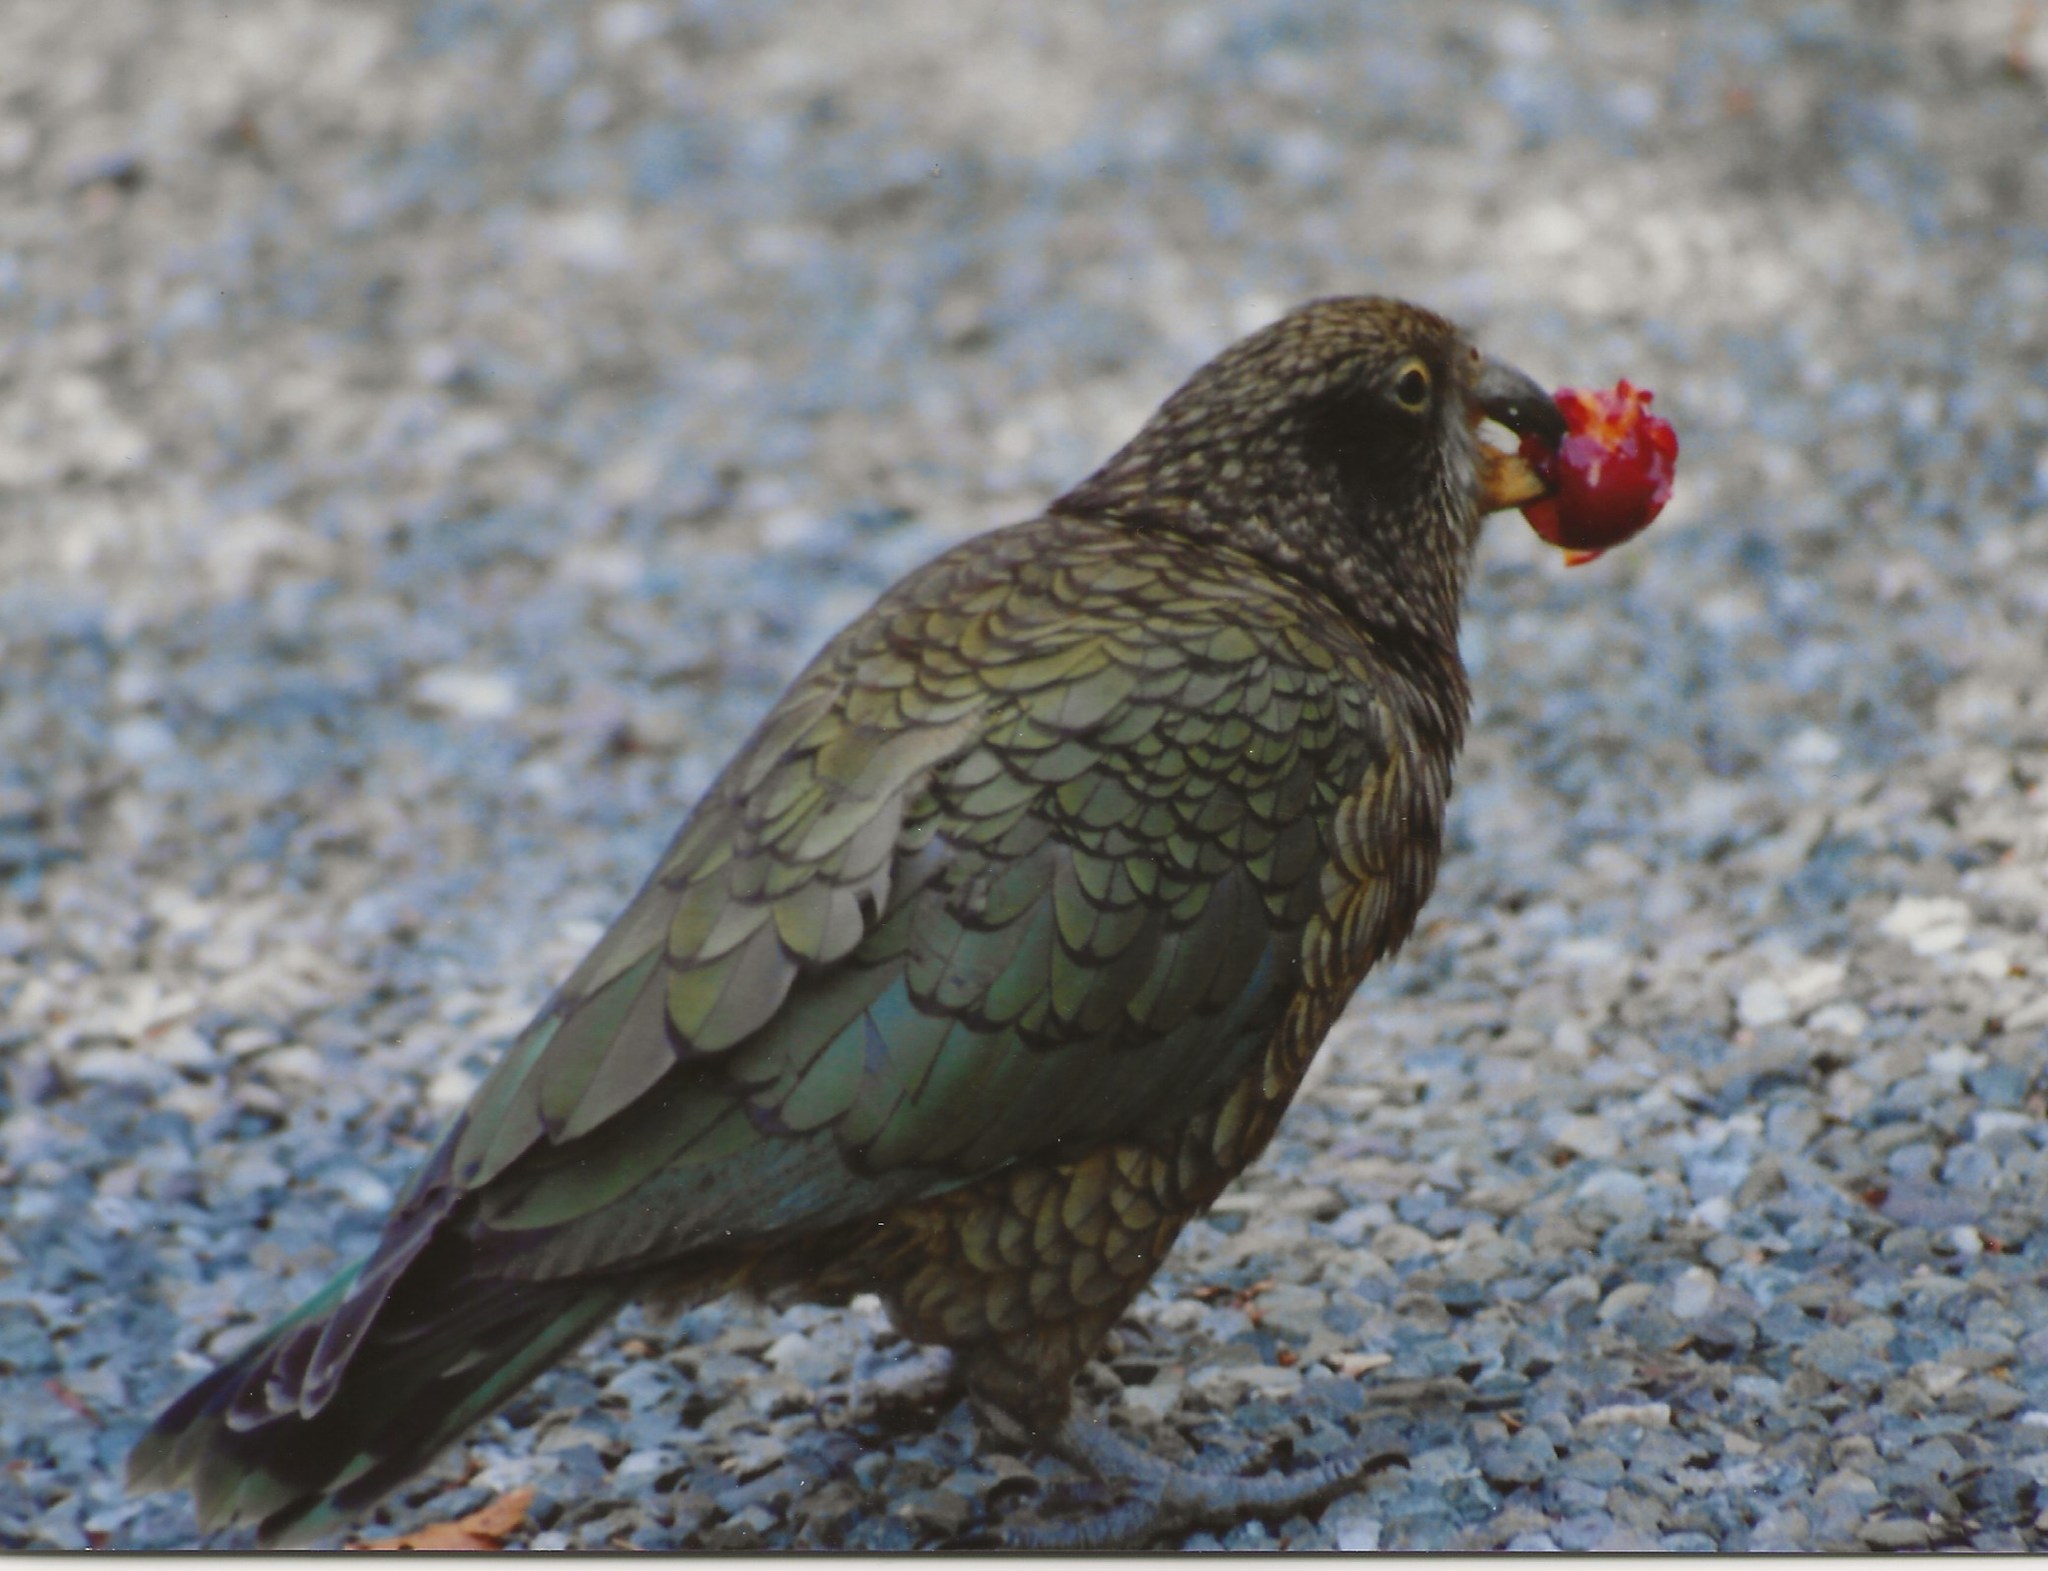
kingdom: Animalia
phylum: Chordata
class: Aves
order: Psittaciformes
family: Psittacidae
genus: Nestor
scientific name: Nestor notabilis
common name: Kea
